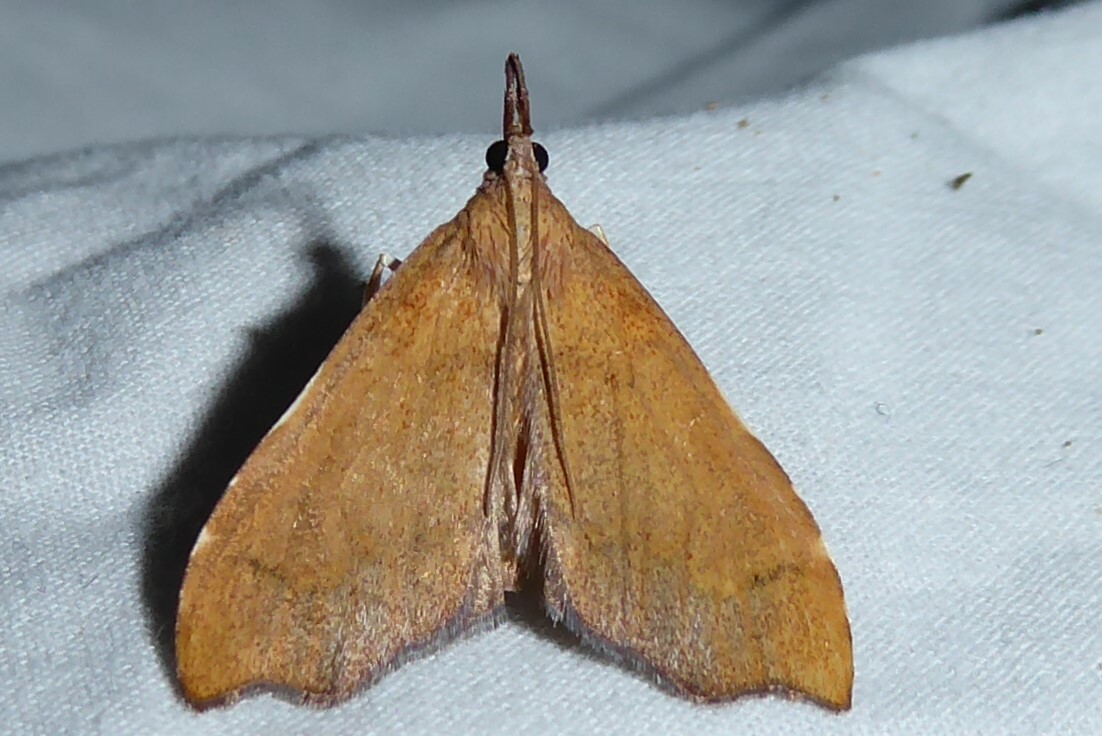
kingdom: Animalia
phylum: Arthropoda
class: Insecta
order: Lepidoptera
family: Crambidae
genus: Deana
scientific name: Deana hybreasalis
